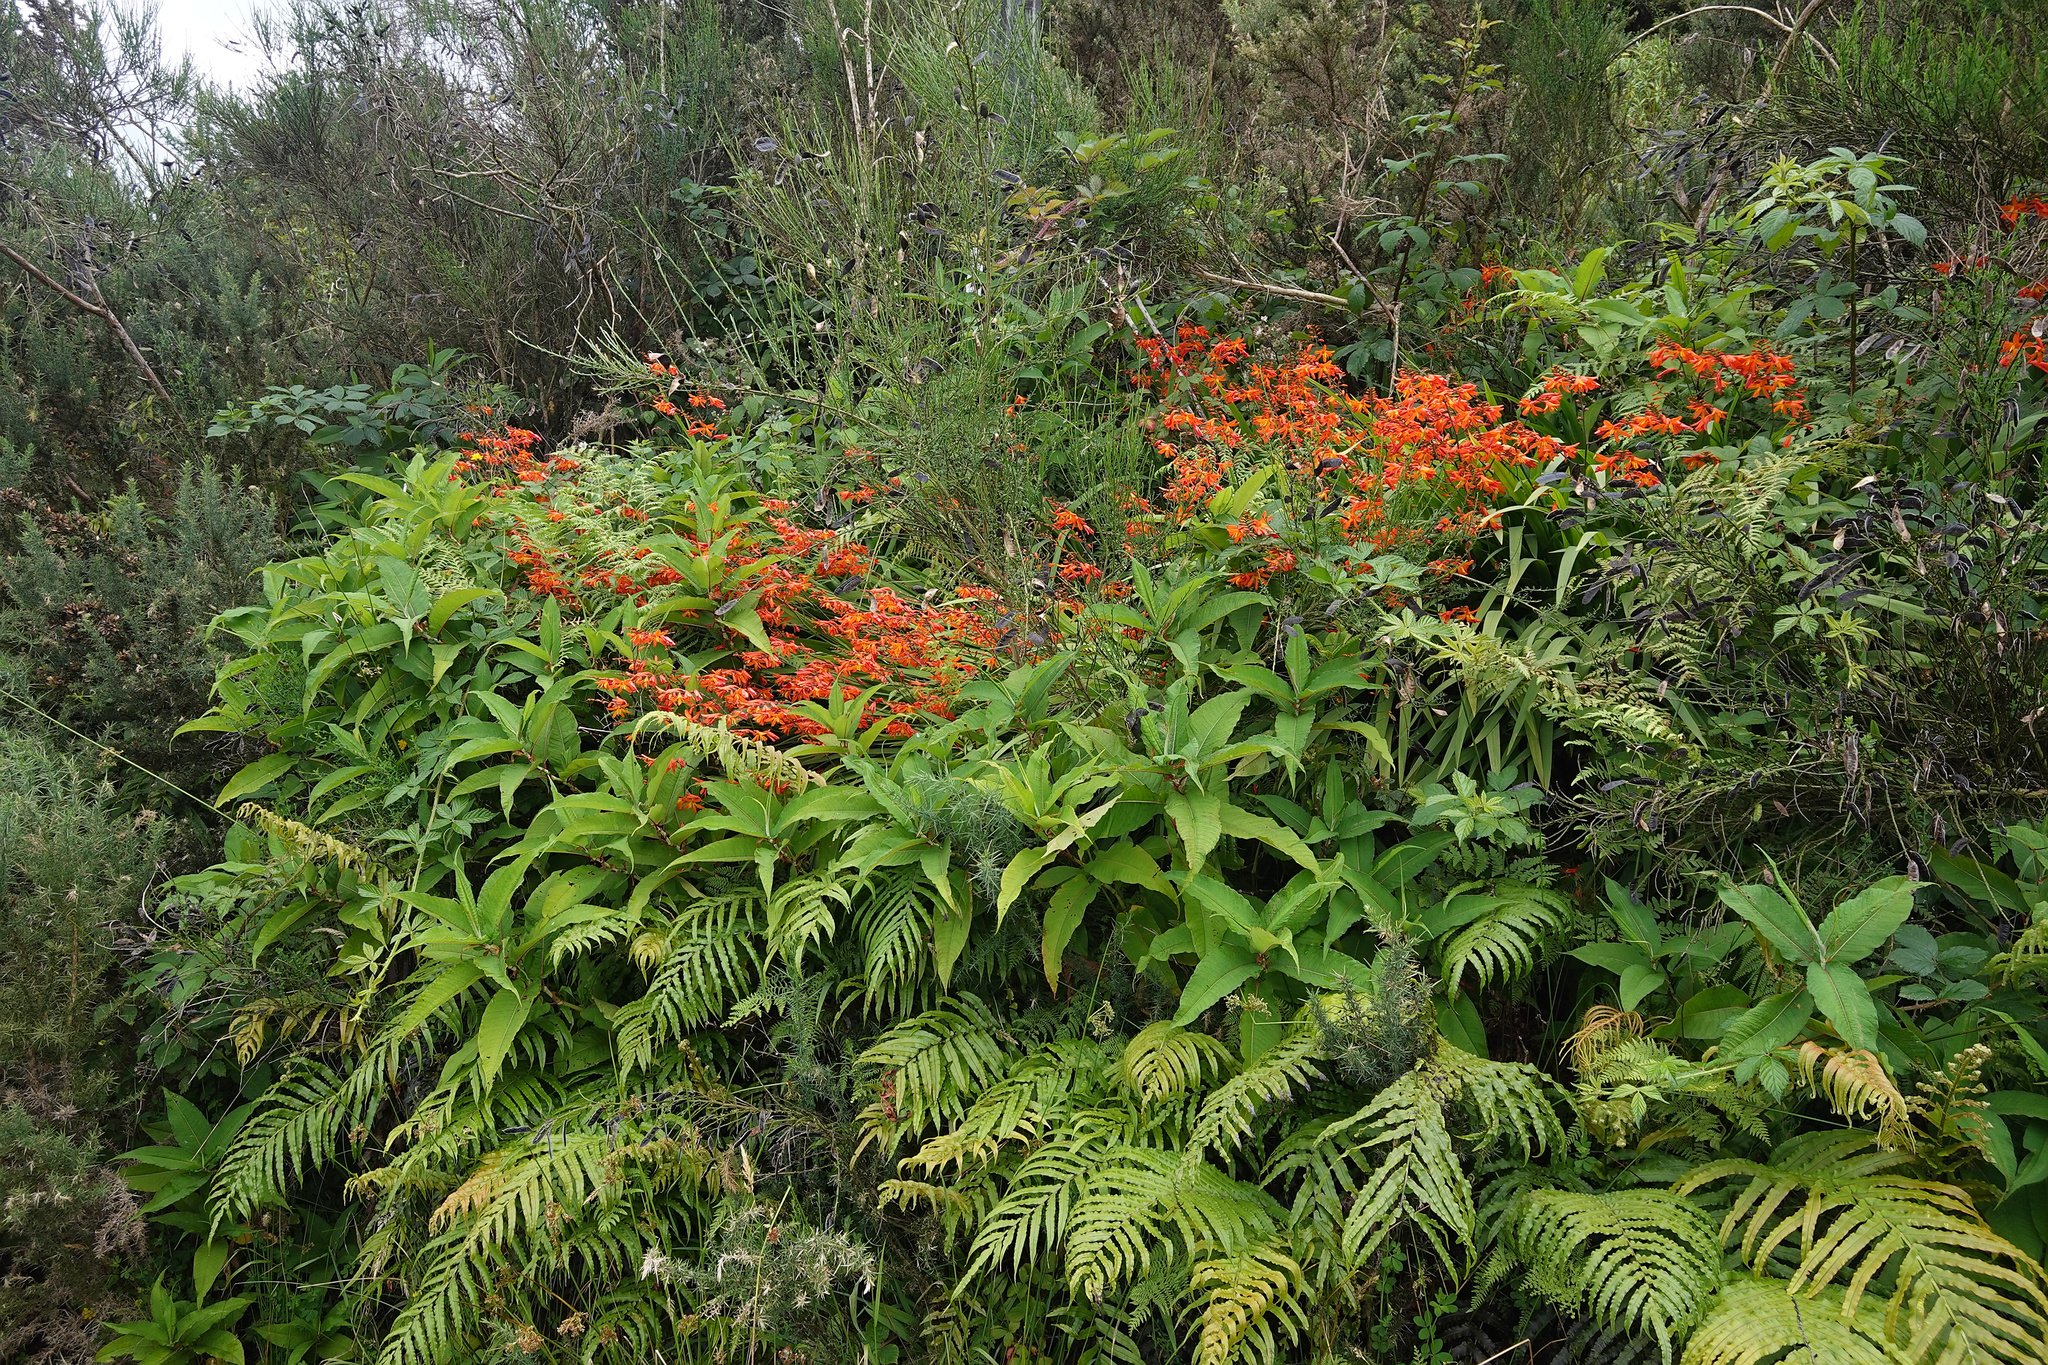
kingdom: Plantae
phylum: Tracheophyta
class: Liliopsida
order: Asparagales
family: Iridaceae
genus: Crocosmia
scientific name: Crocosmia crocosmiiflora
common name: Montbretia
